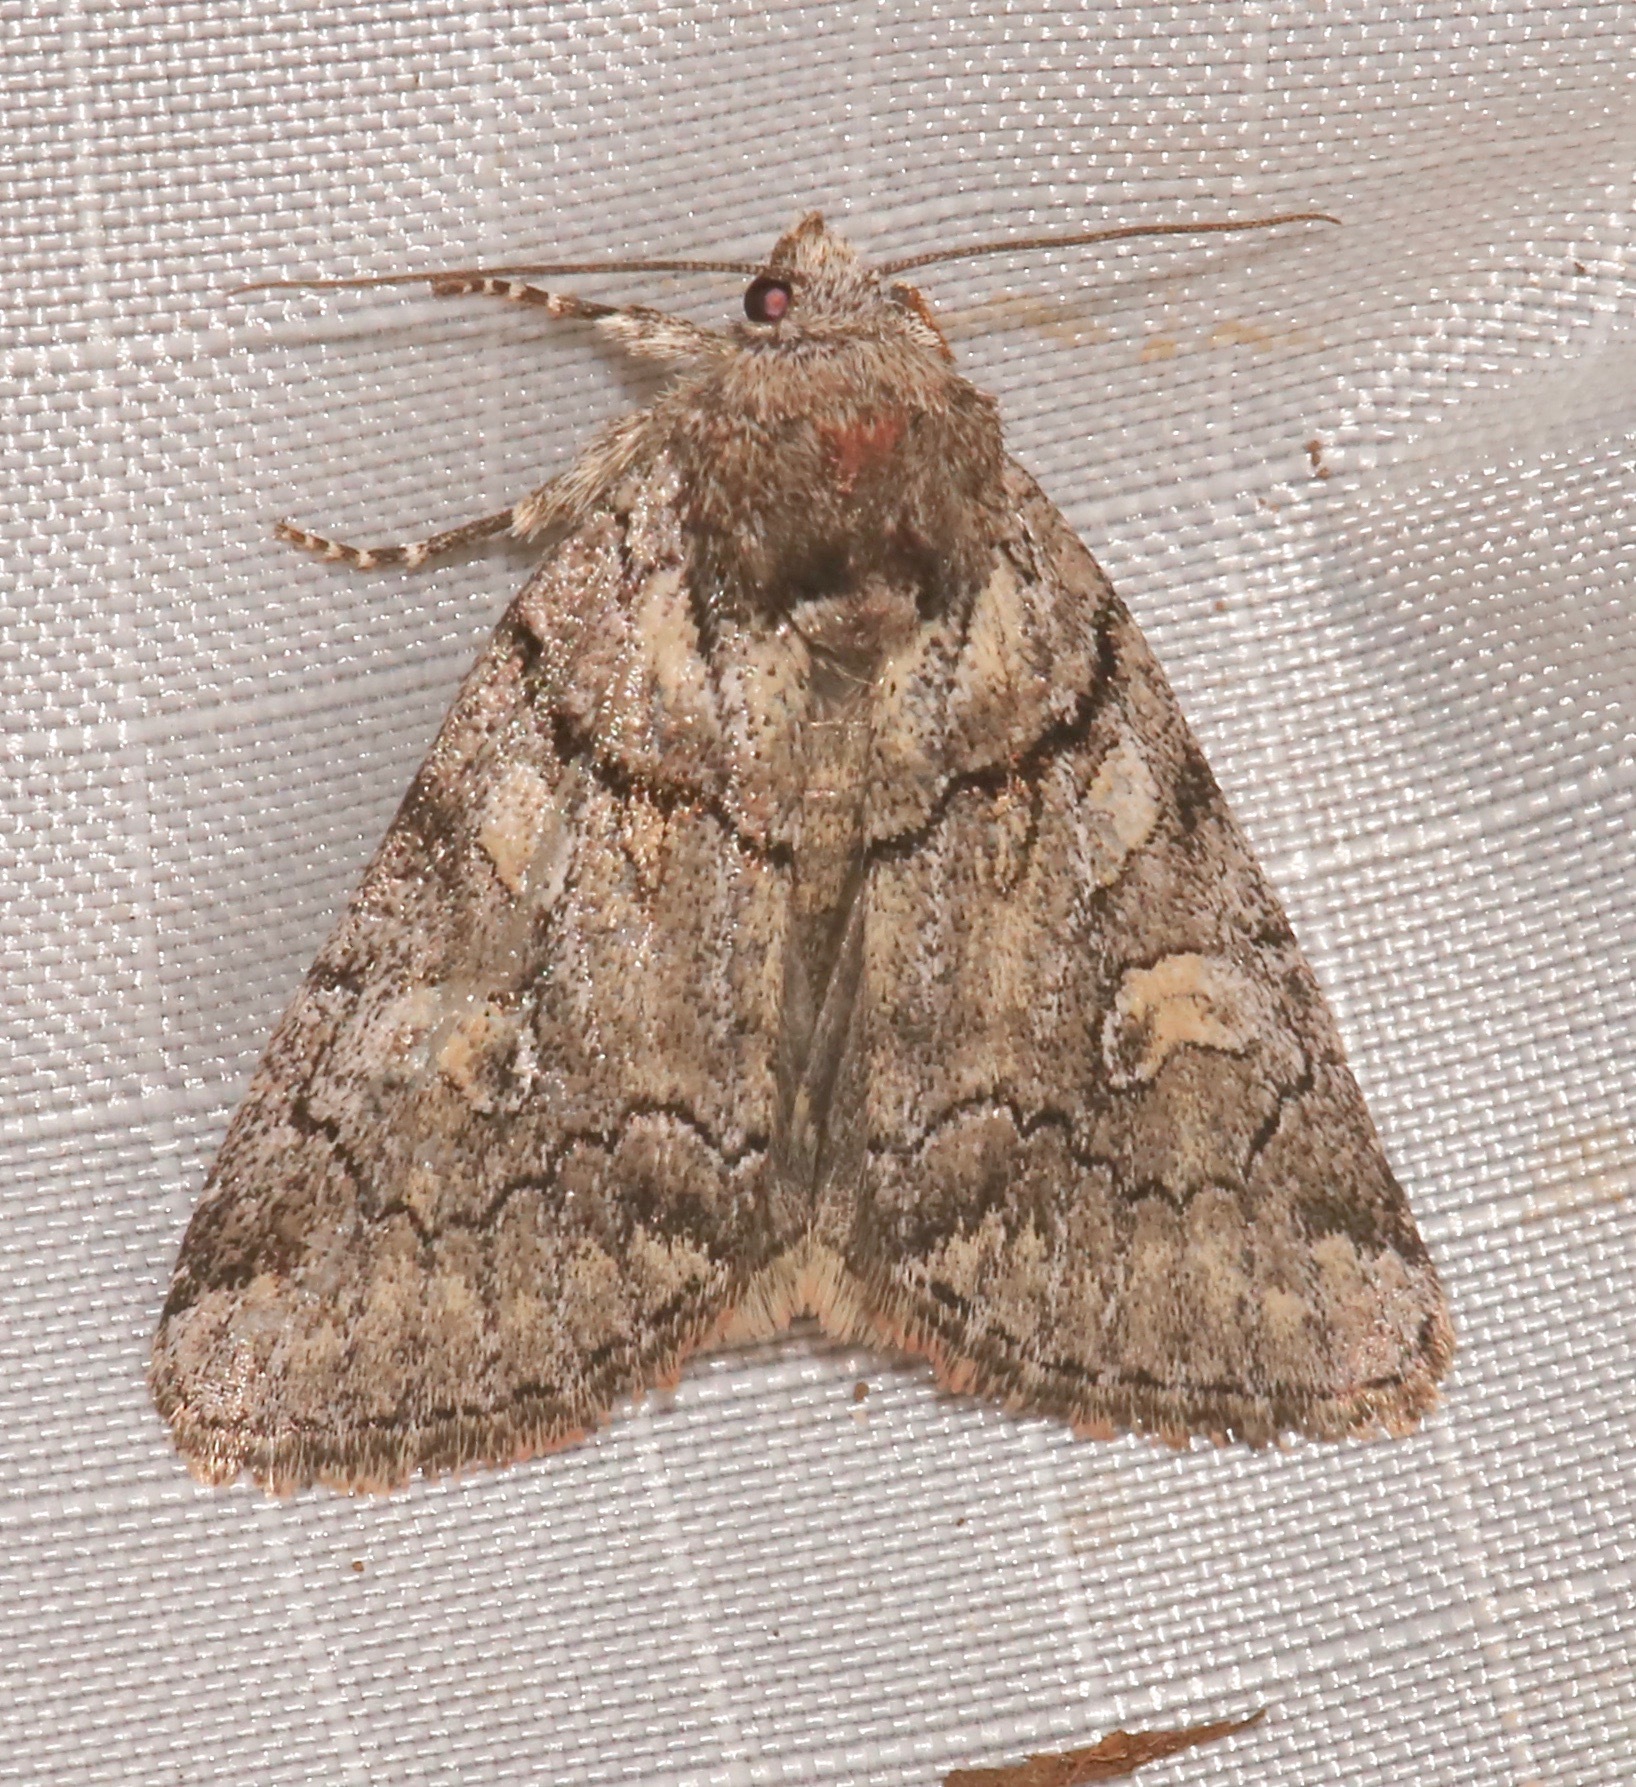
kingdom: Animalia
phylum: Arthropoda
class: Insecta
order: Lepidoptera
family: Noctuidae
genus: Cosmia
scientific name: Cosmia praeacuta
